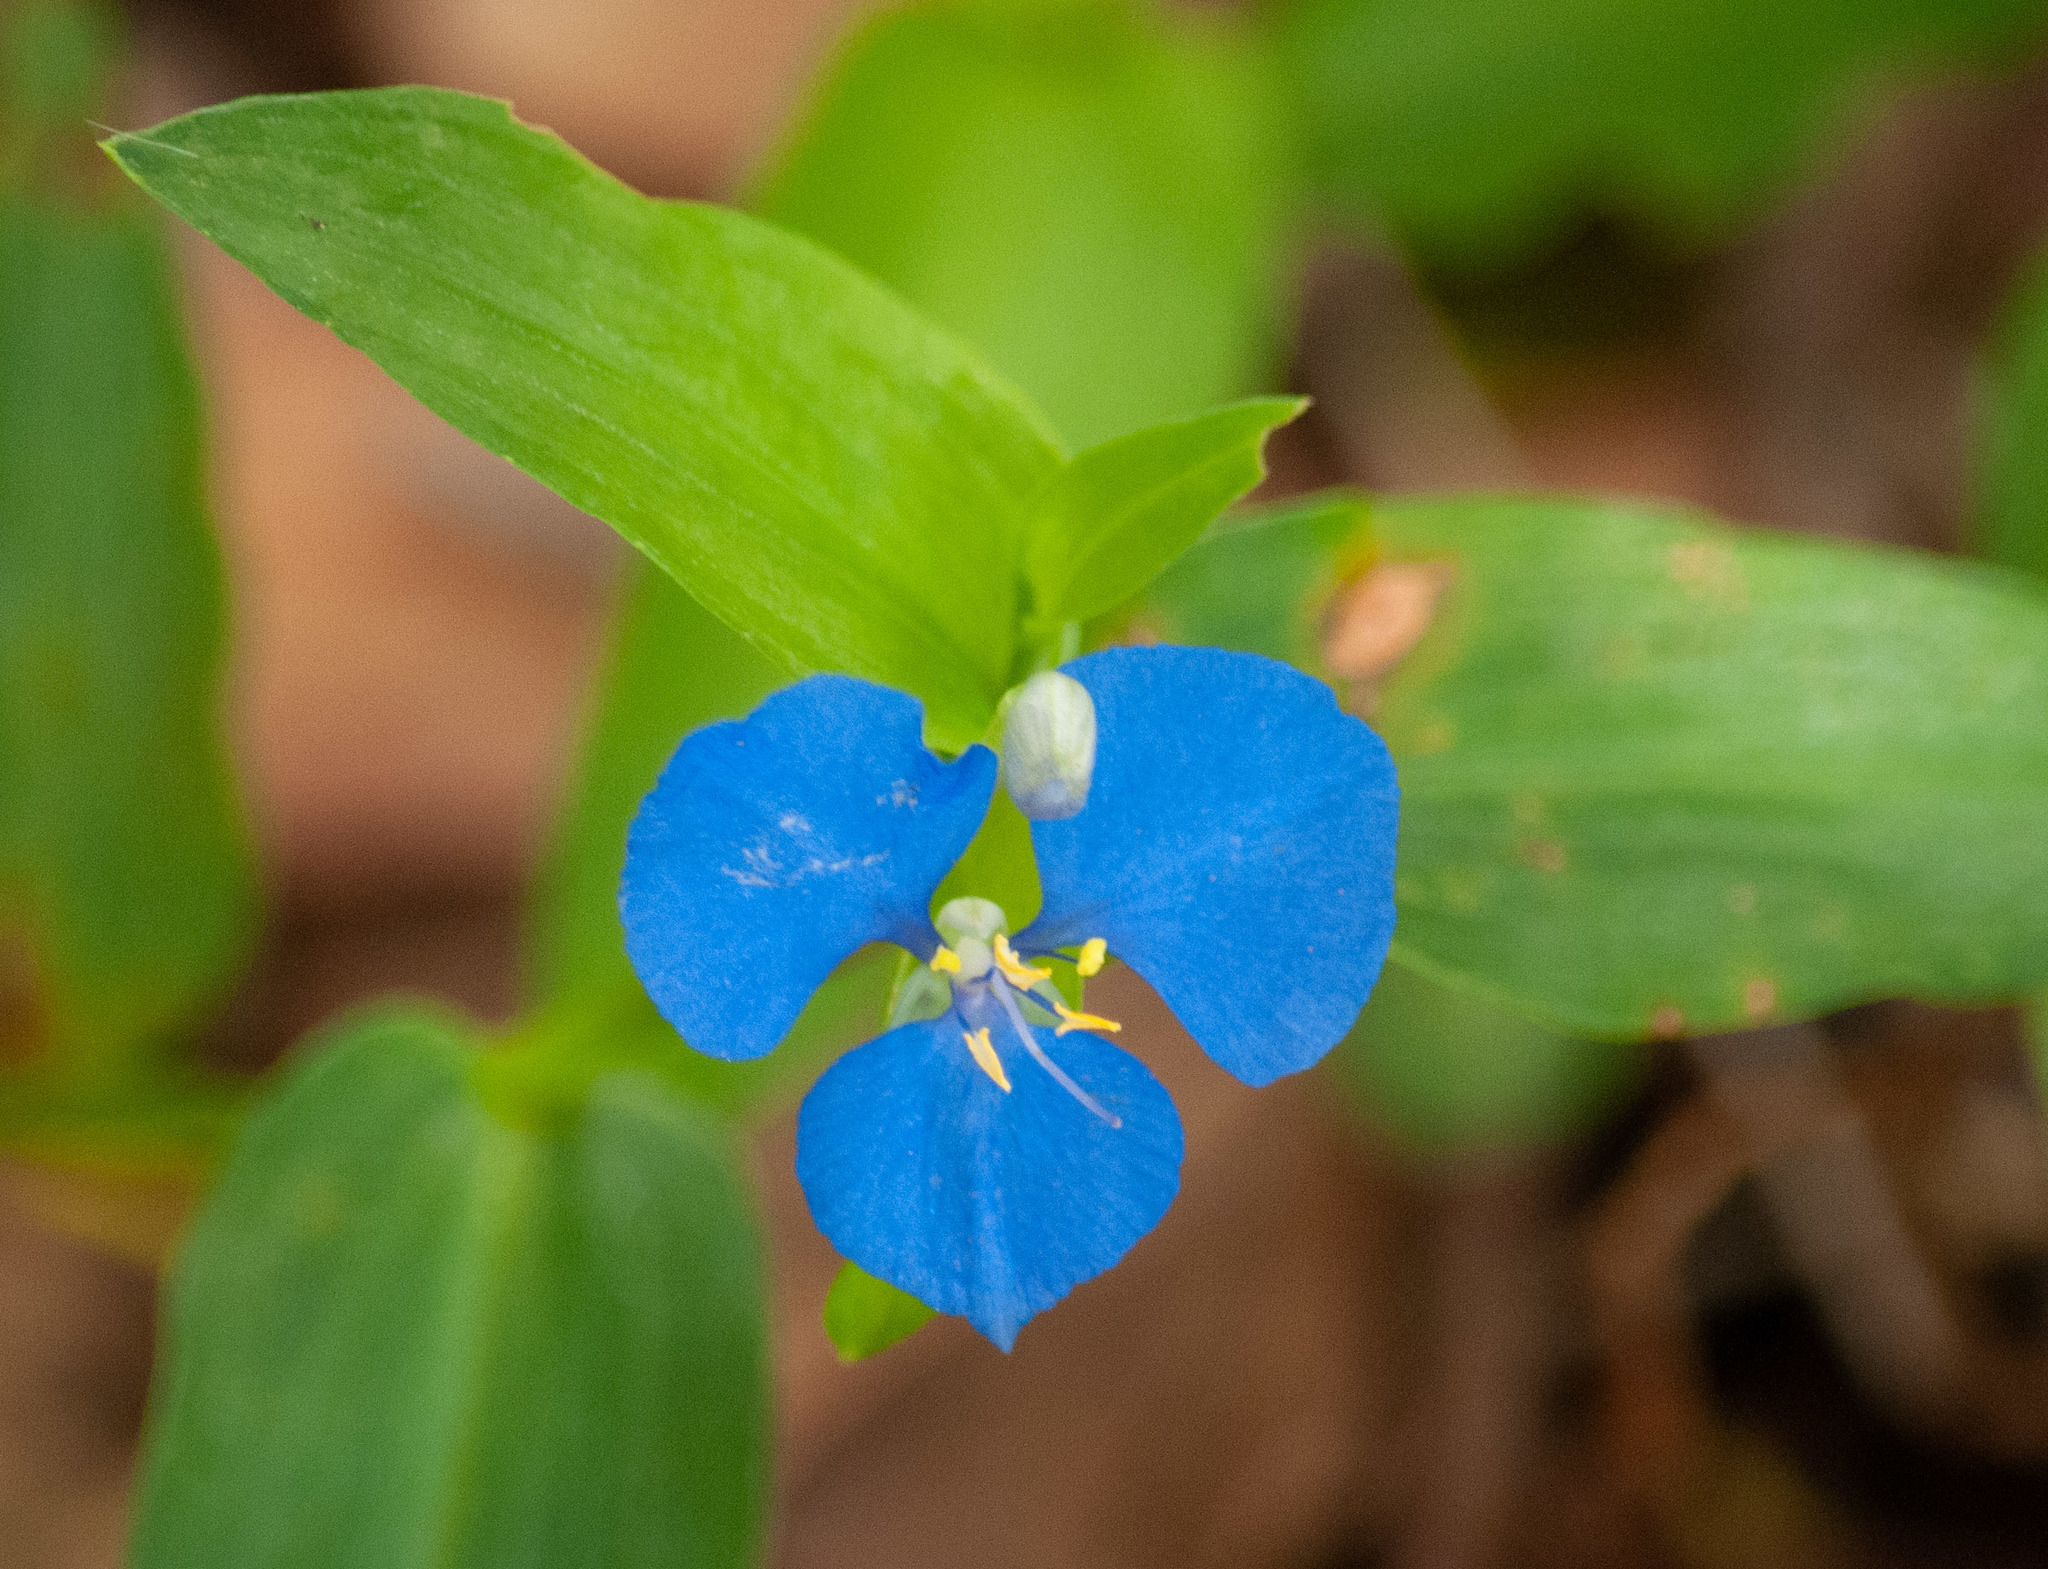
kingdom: Plantae
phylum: Tracheophyta
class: Liliopsida
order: Commelinales
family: Commelinaceae
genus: Commelina
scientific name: Commelina cyanea
